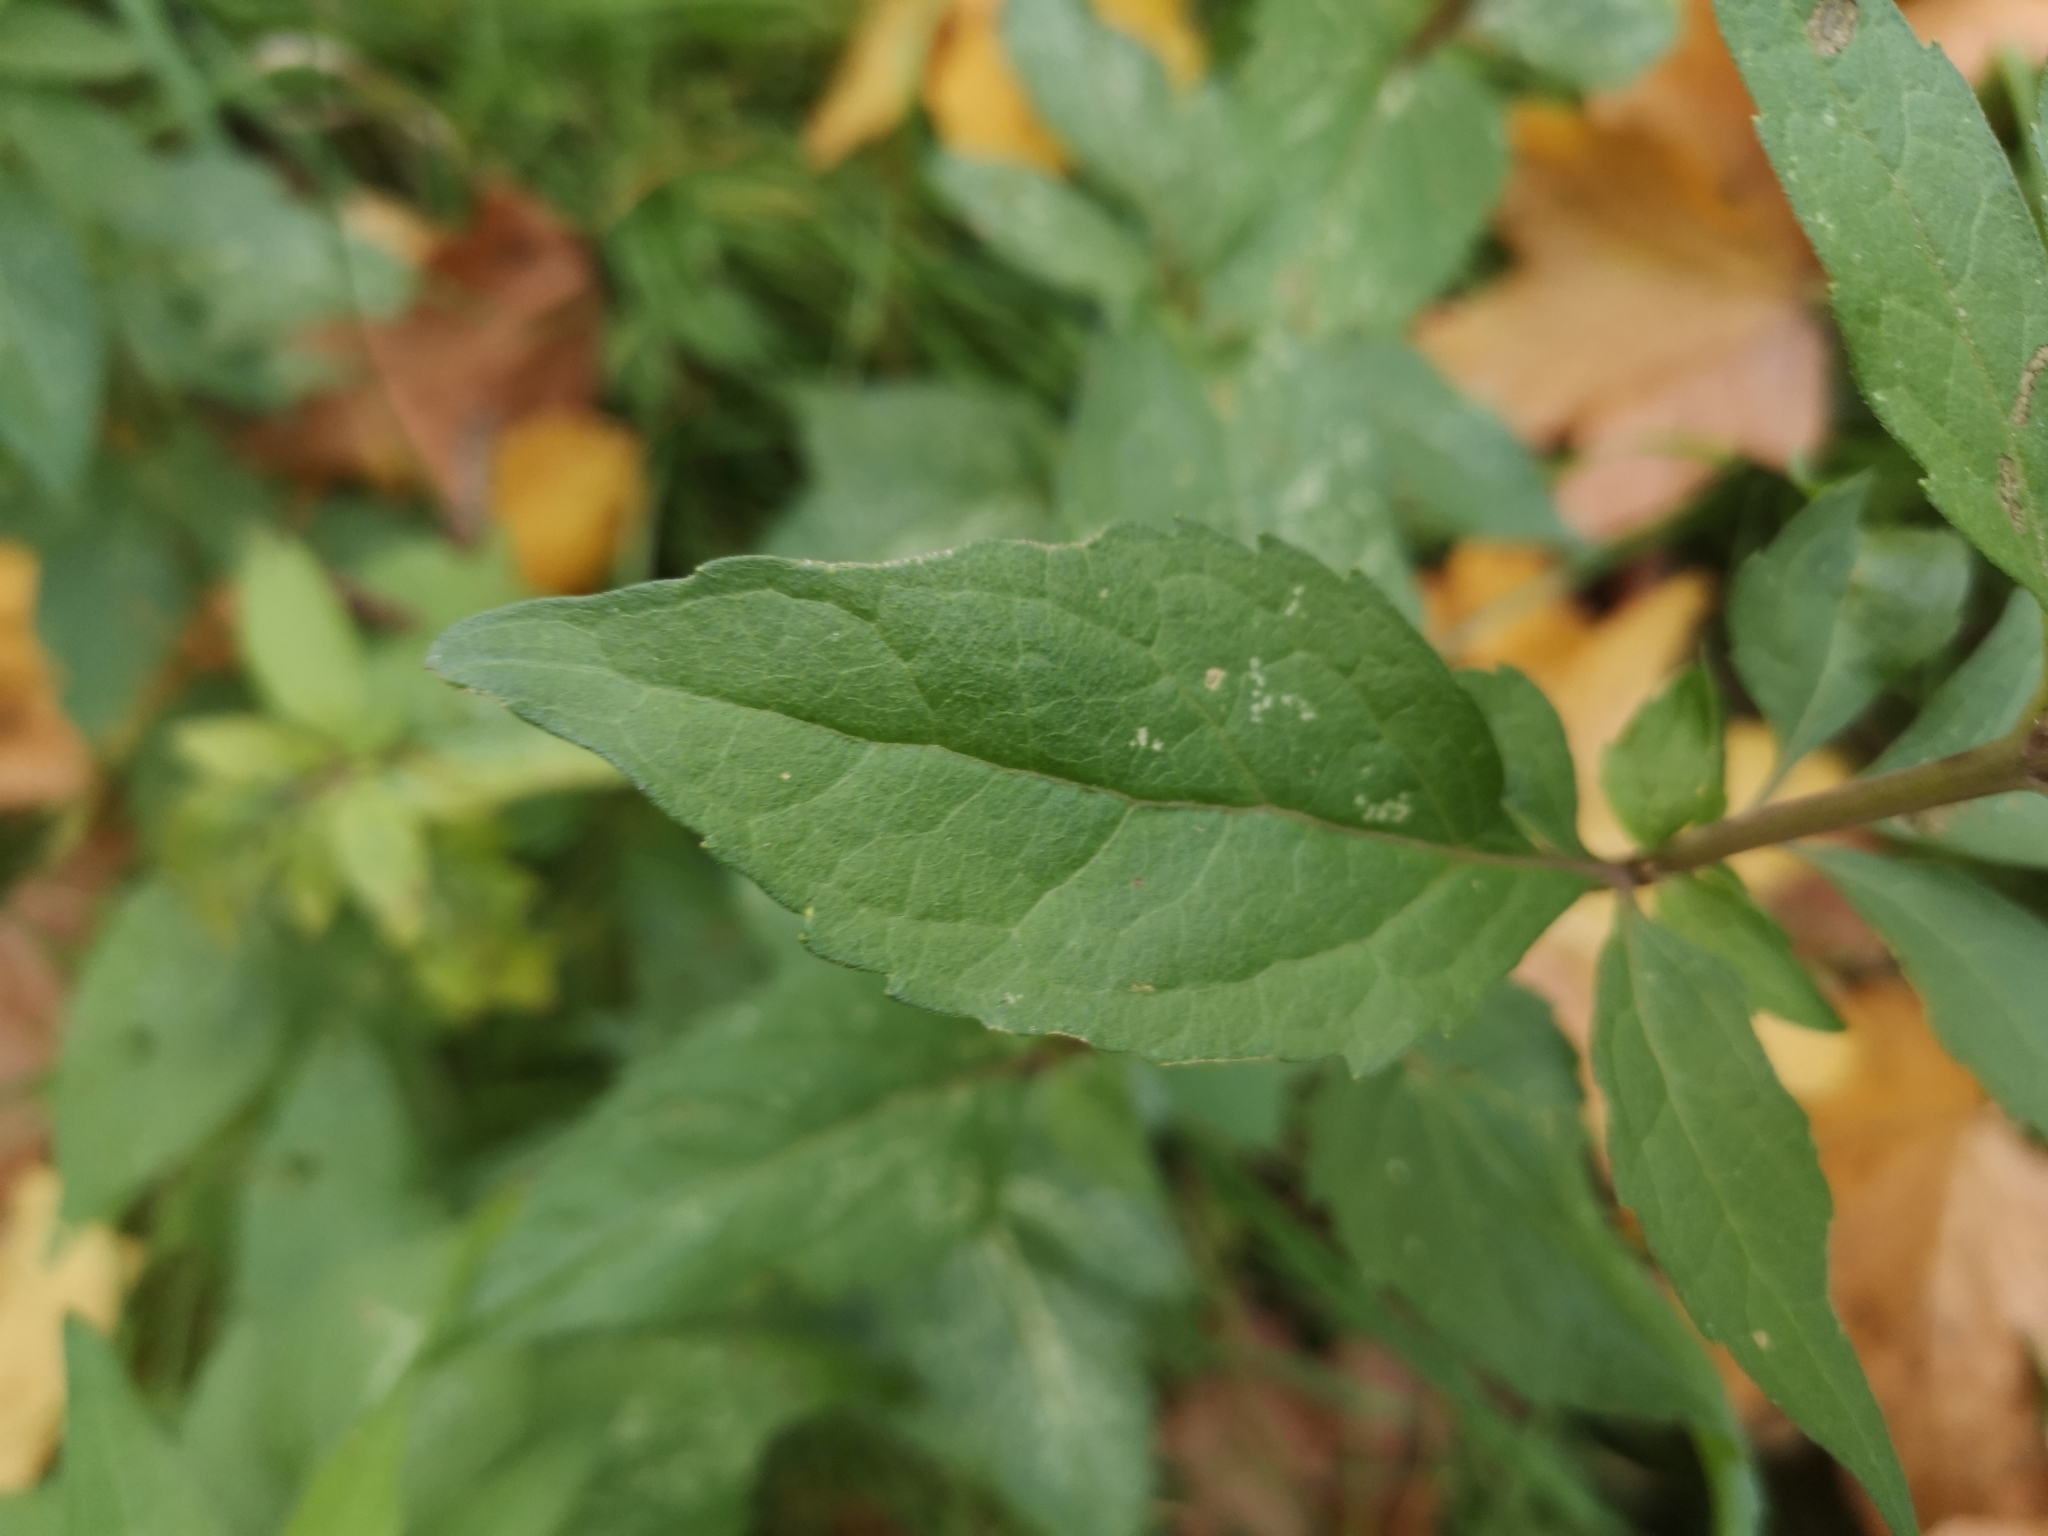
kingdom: Plantae
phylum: Tracheophyta
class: Magnoliopsida
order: Asterales
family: Asteraceae
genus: Eupatorium
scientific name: Eupatorium cannabinum
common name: Hemp-agrimony
